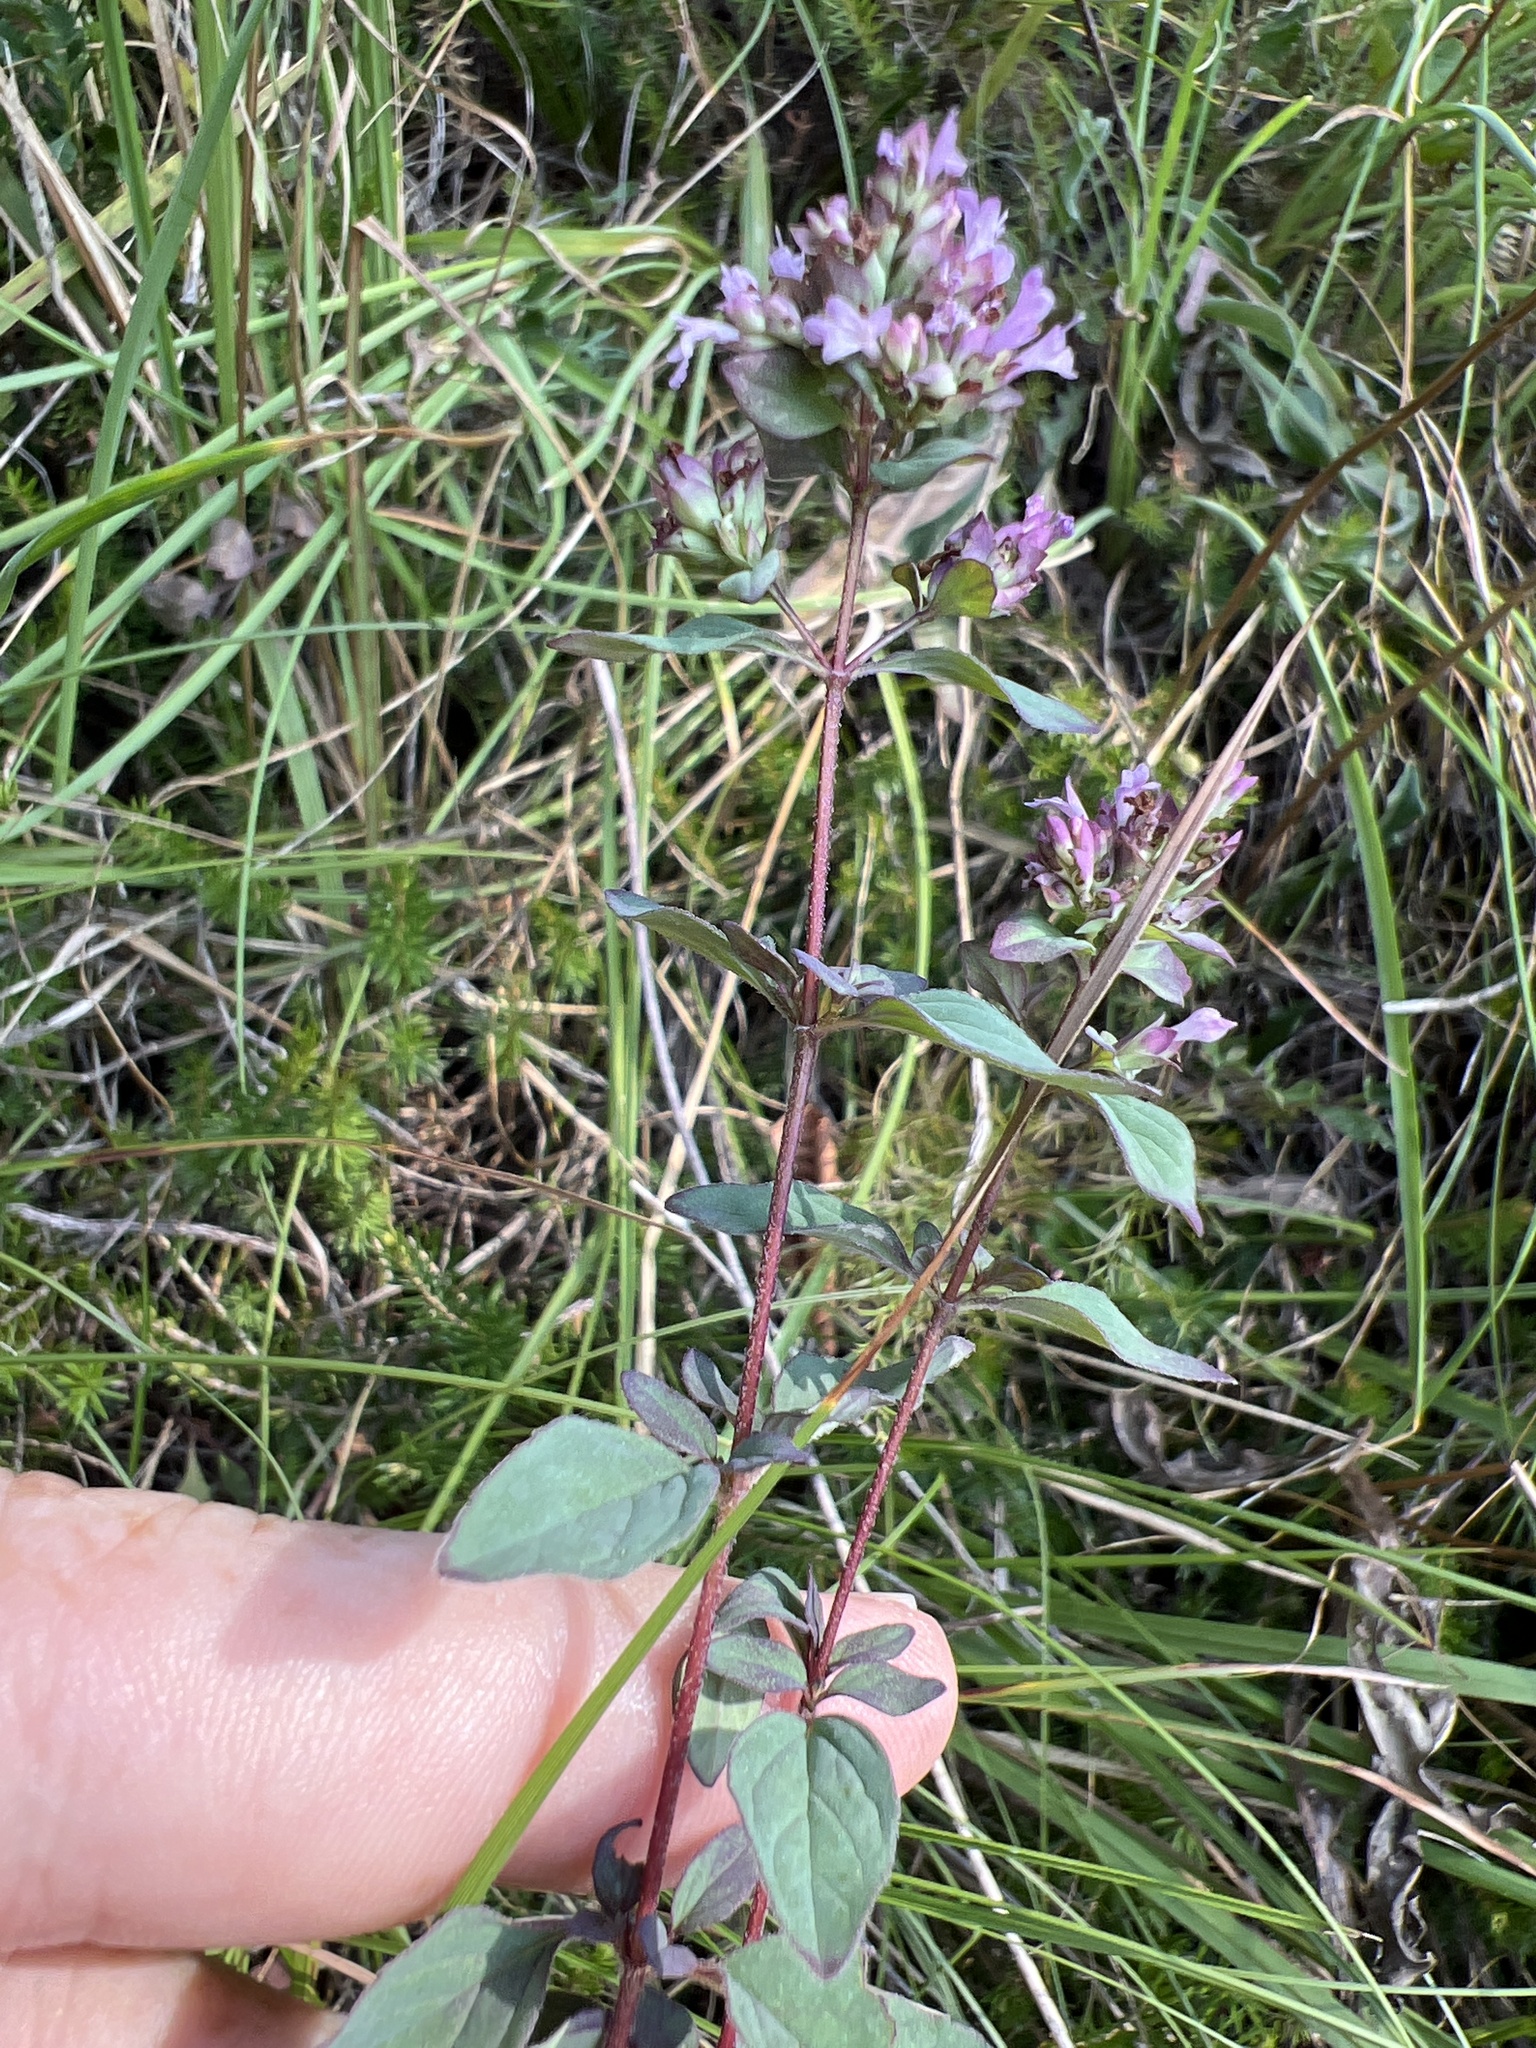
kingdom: Plantae
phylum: Tracheophyta
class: Magnoliopsida
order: Lamiales
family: Lamiaceae
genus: Origanum
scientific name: Origanum vulgare
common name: Wild marjoram
